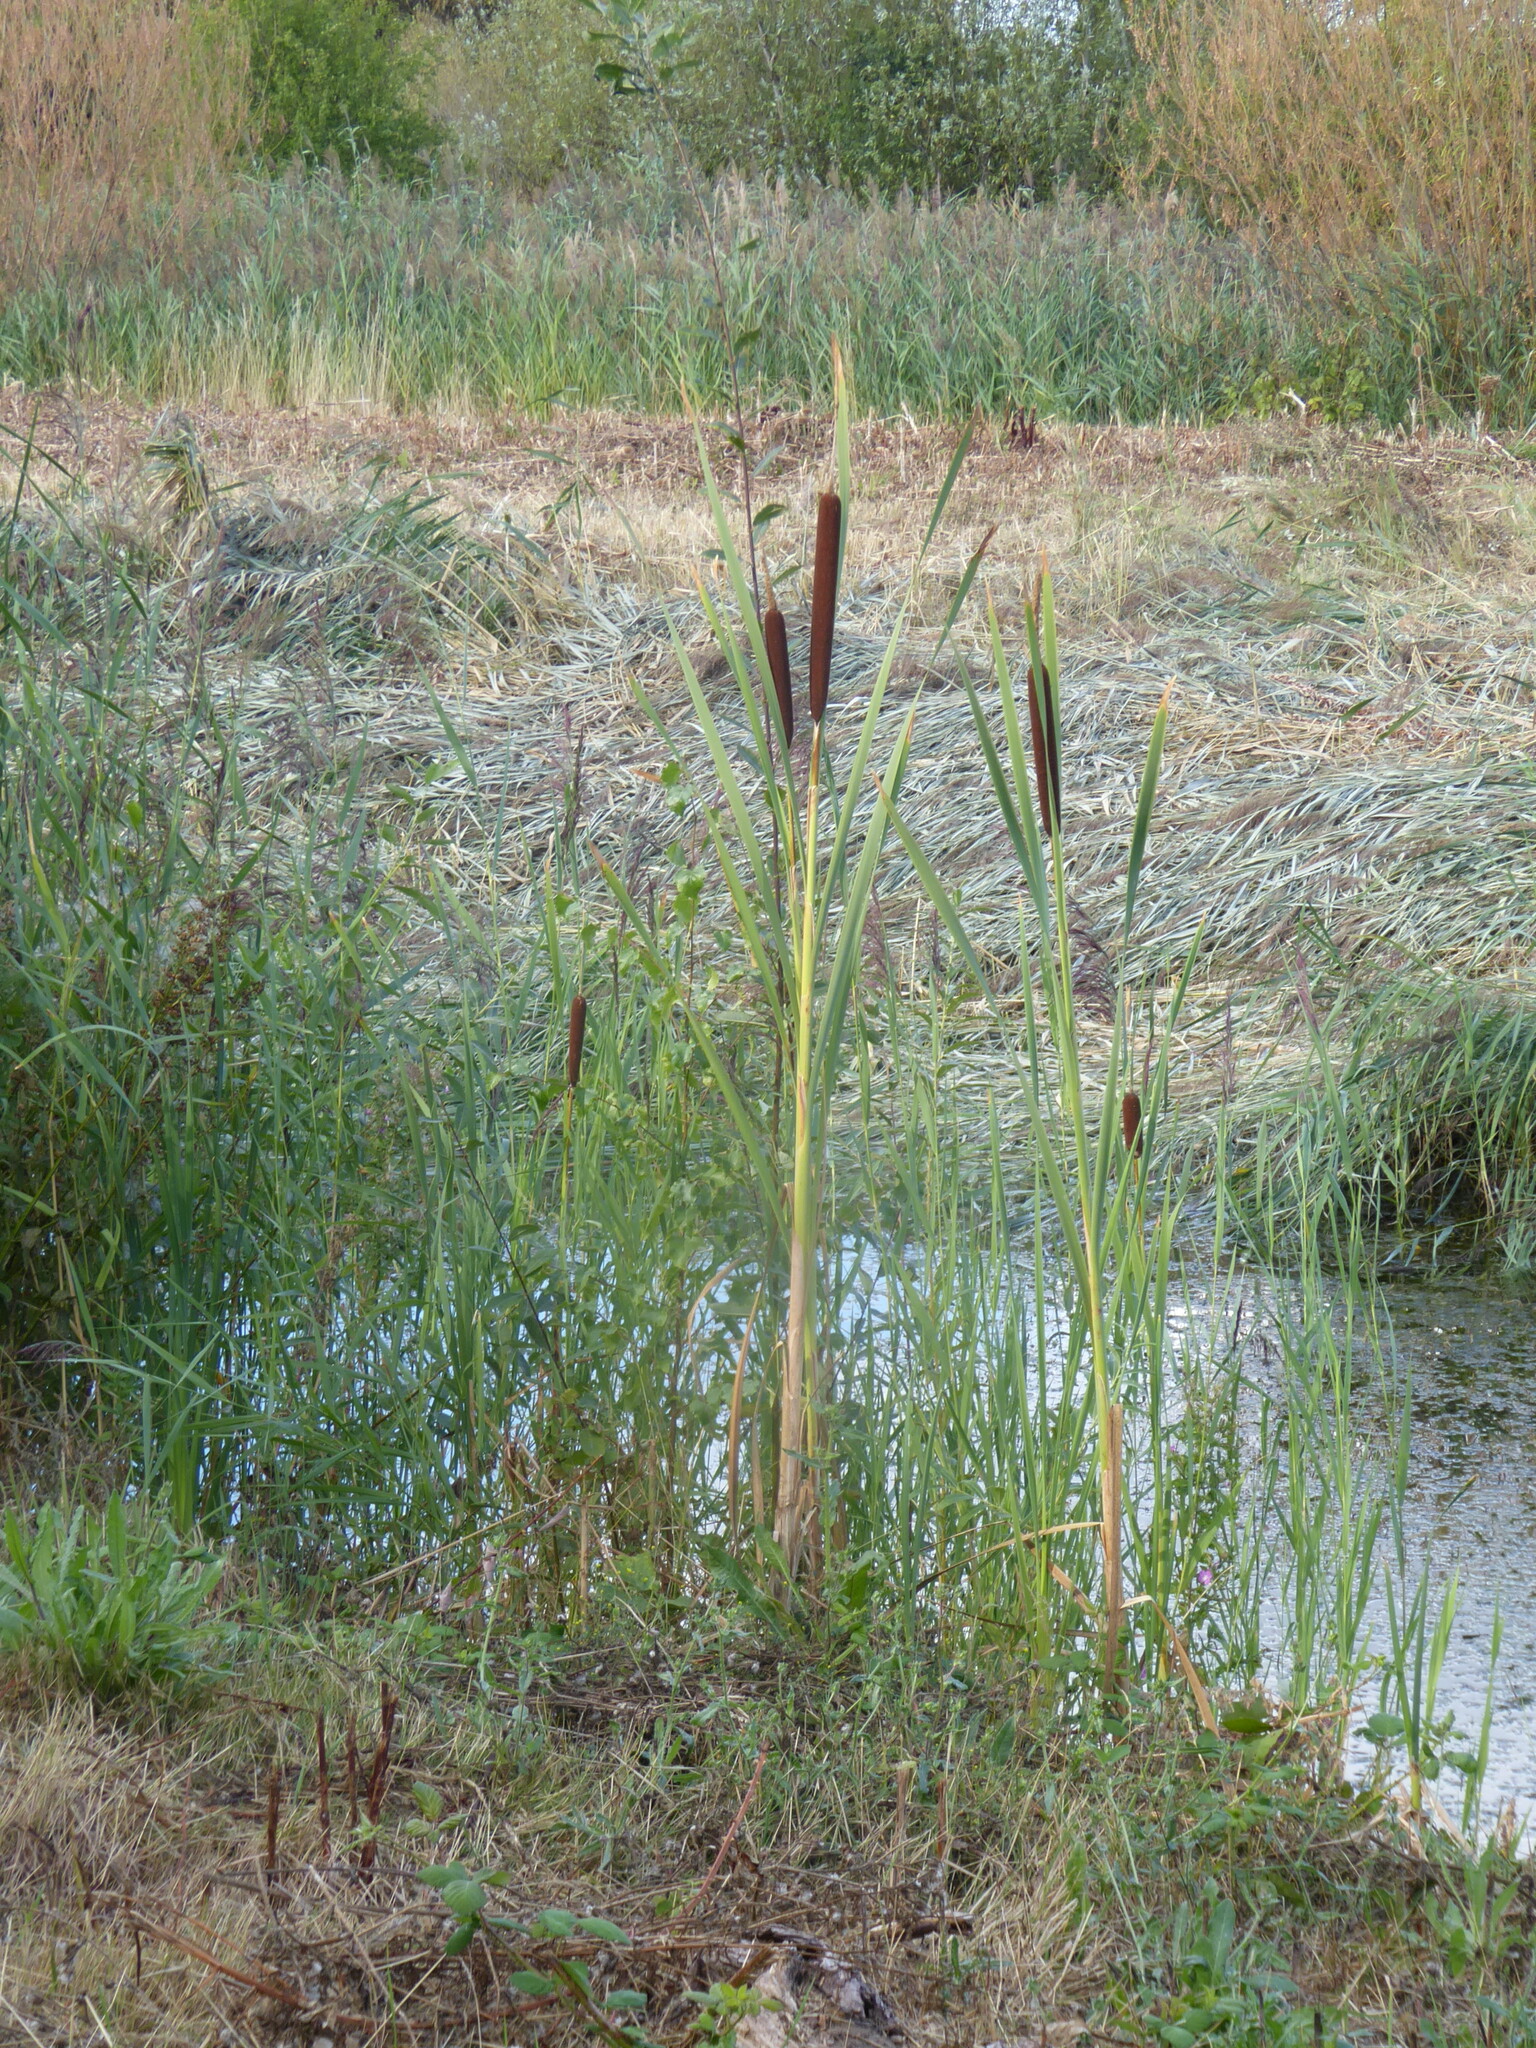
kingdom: Plantae
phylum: Tracheophyta
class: Liliopsida
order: Poales
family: Typhaceae
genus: Typha
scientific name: Typha latifolia
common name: Broadleaf cattail
